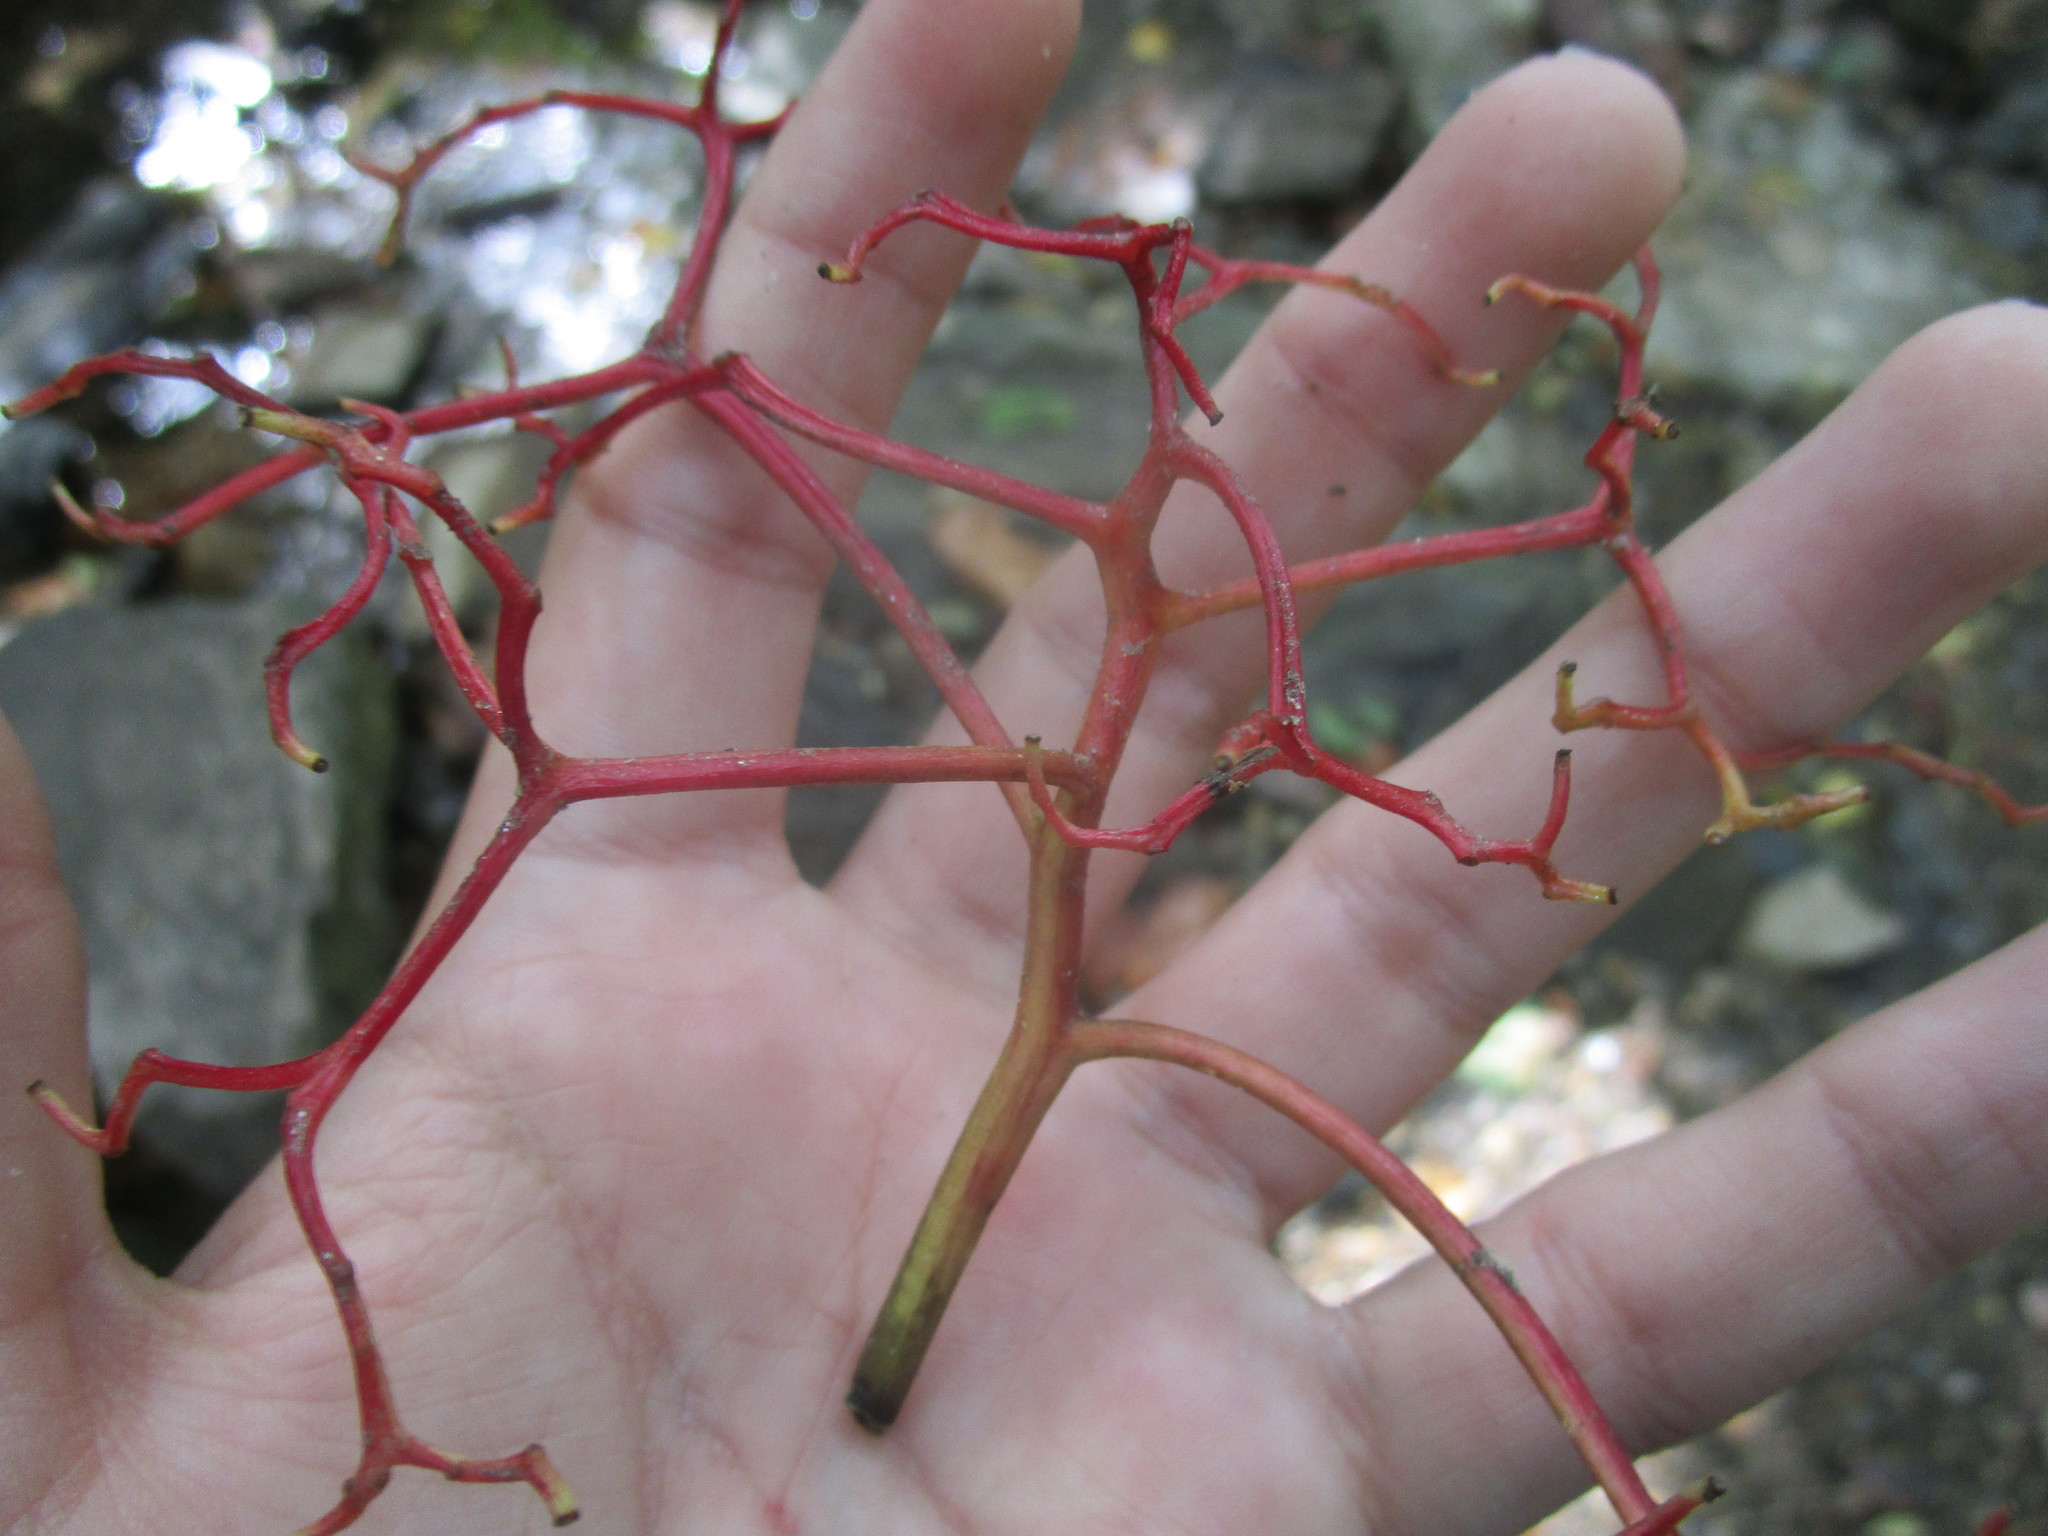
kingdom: Plantae
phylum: Tracheophyta
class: Magnoliopsida
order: Vitales
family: Vitaceae
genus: Parthenocissus
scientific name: Parthenocissus quinquefolia
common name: Virginia-creeper
